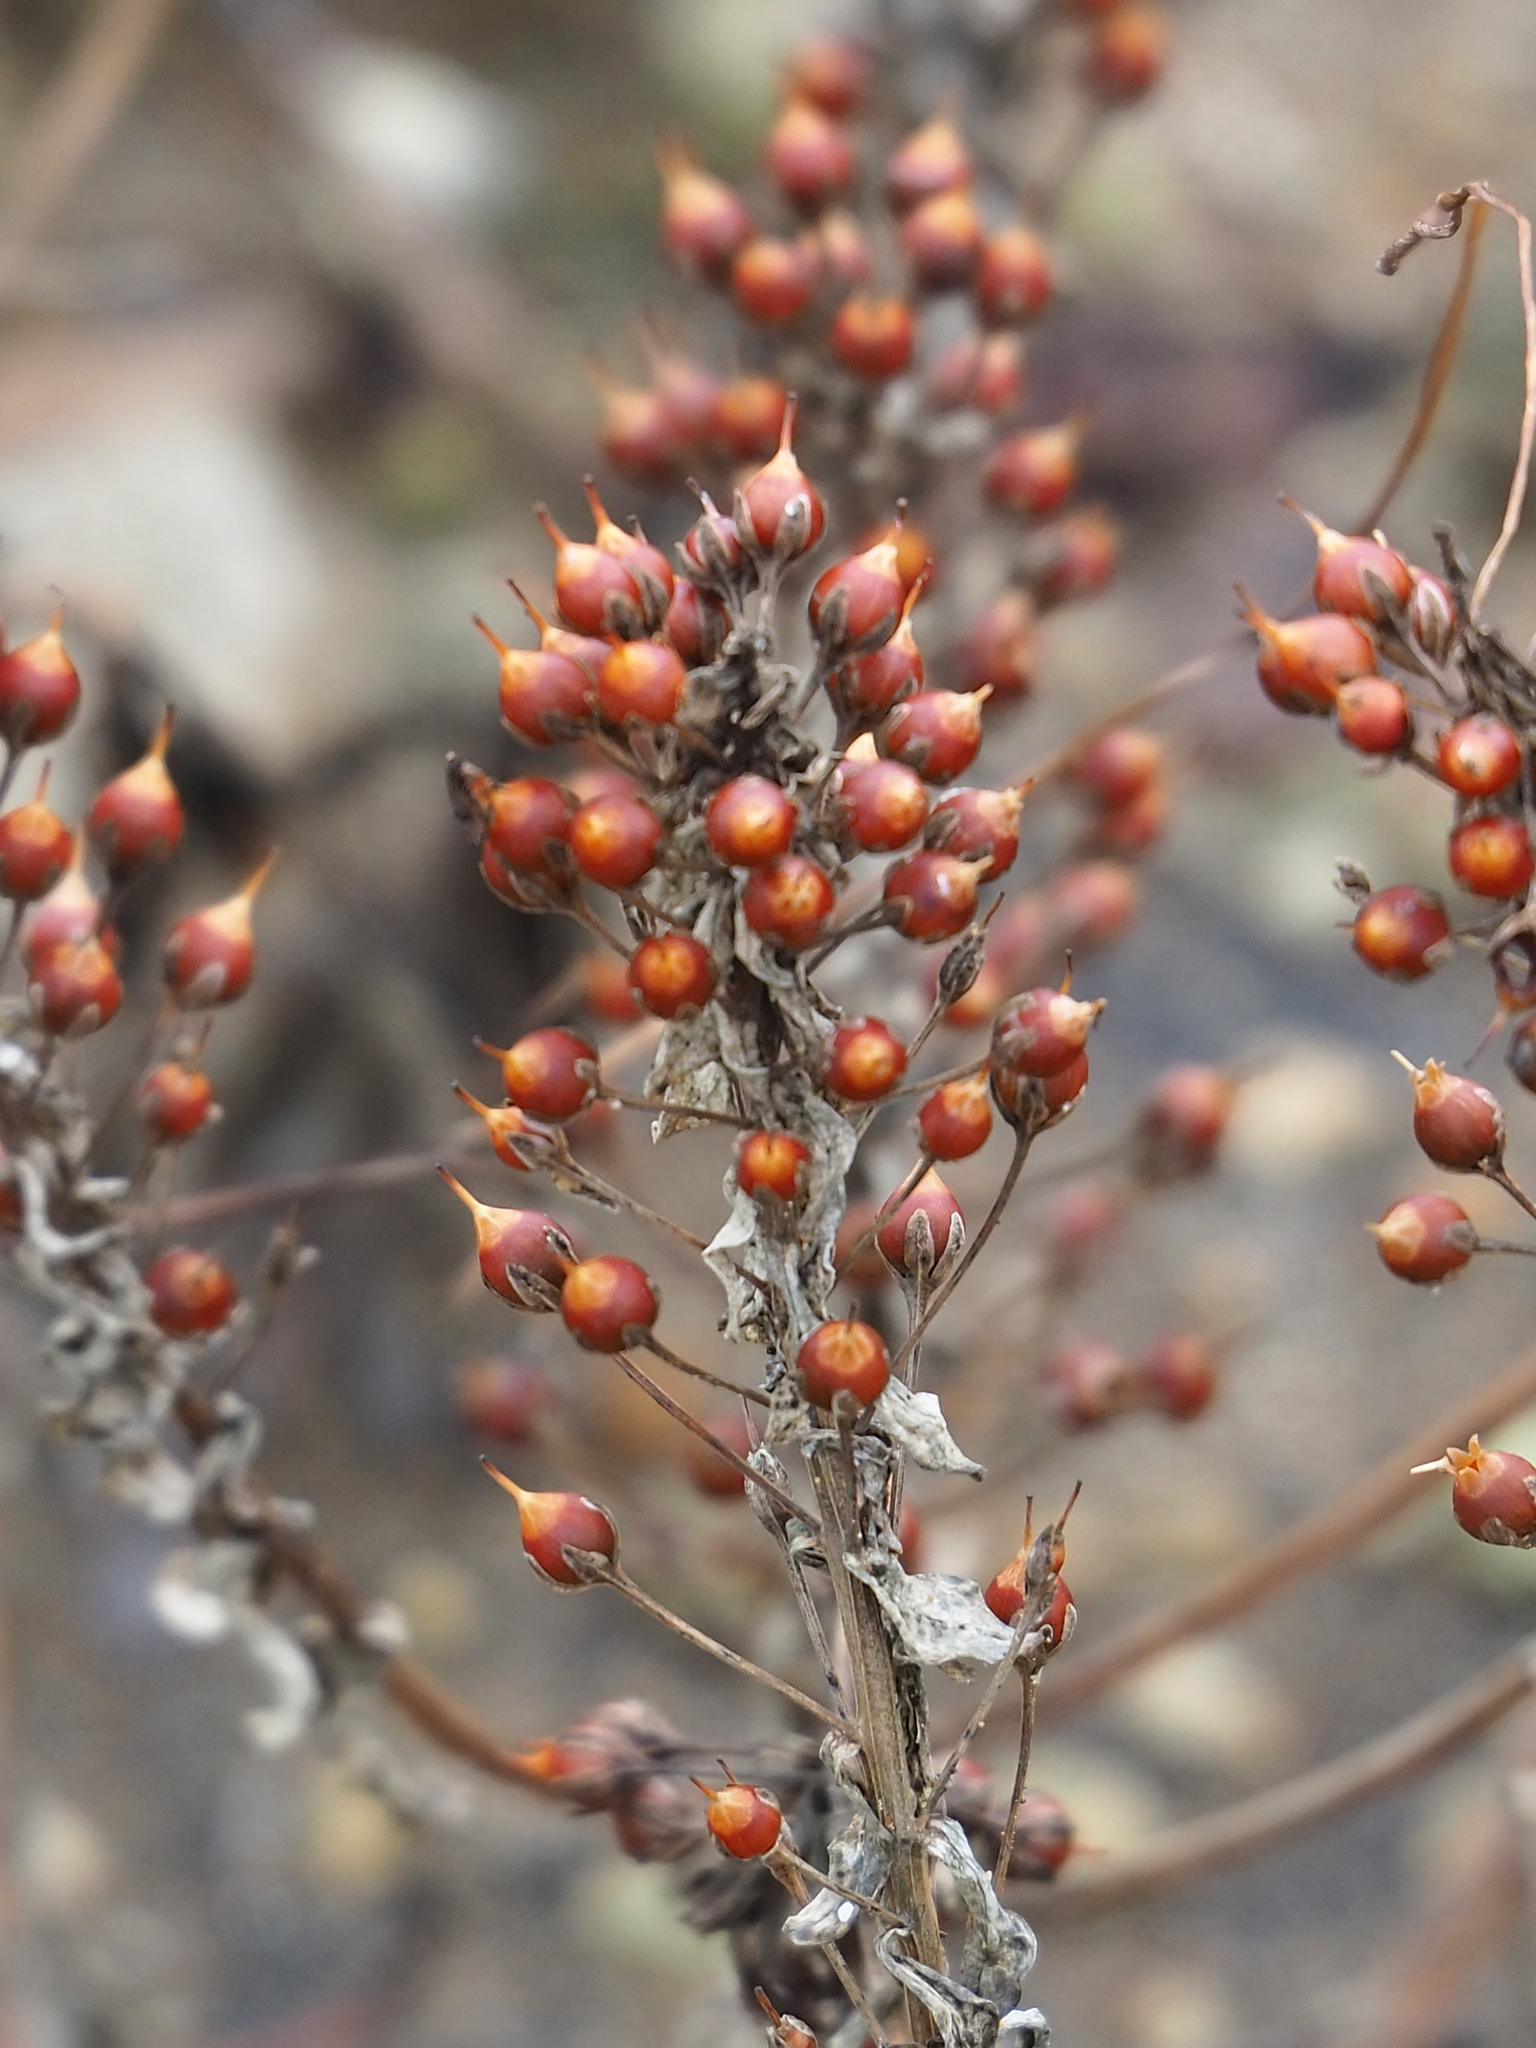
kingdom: Plantae
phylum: Tracheophyta
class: Magnoliopsida
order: Ericales
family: Primulaceae
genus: Lysimachia
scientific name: Lysimachia mauritiana
